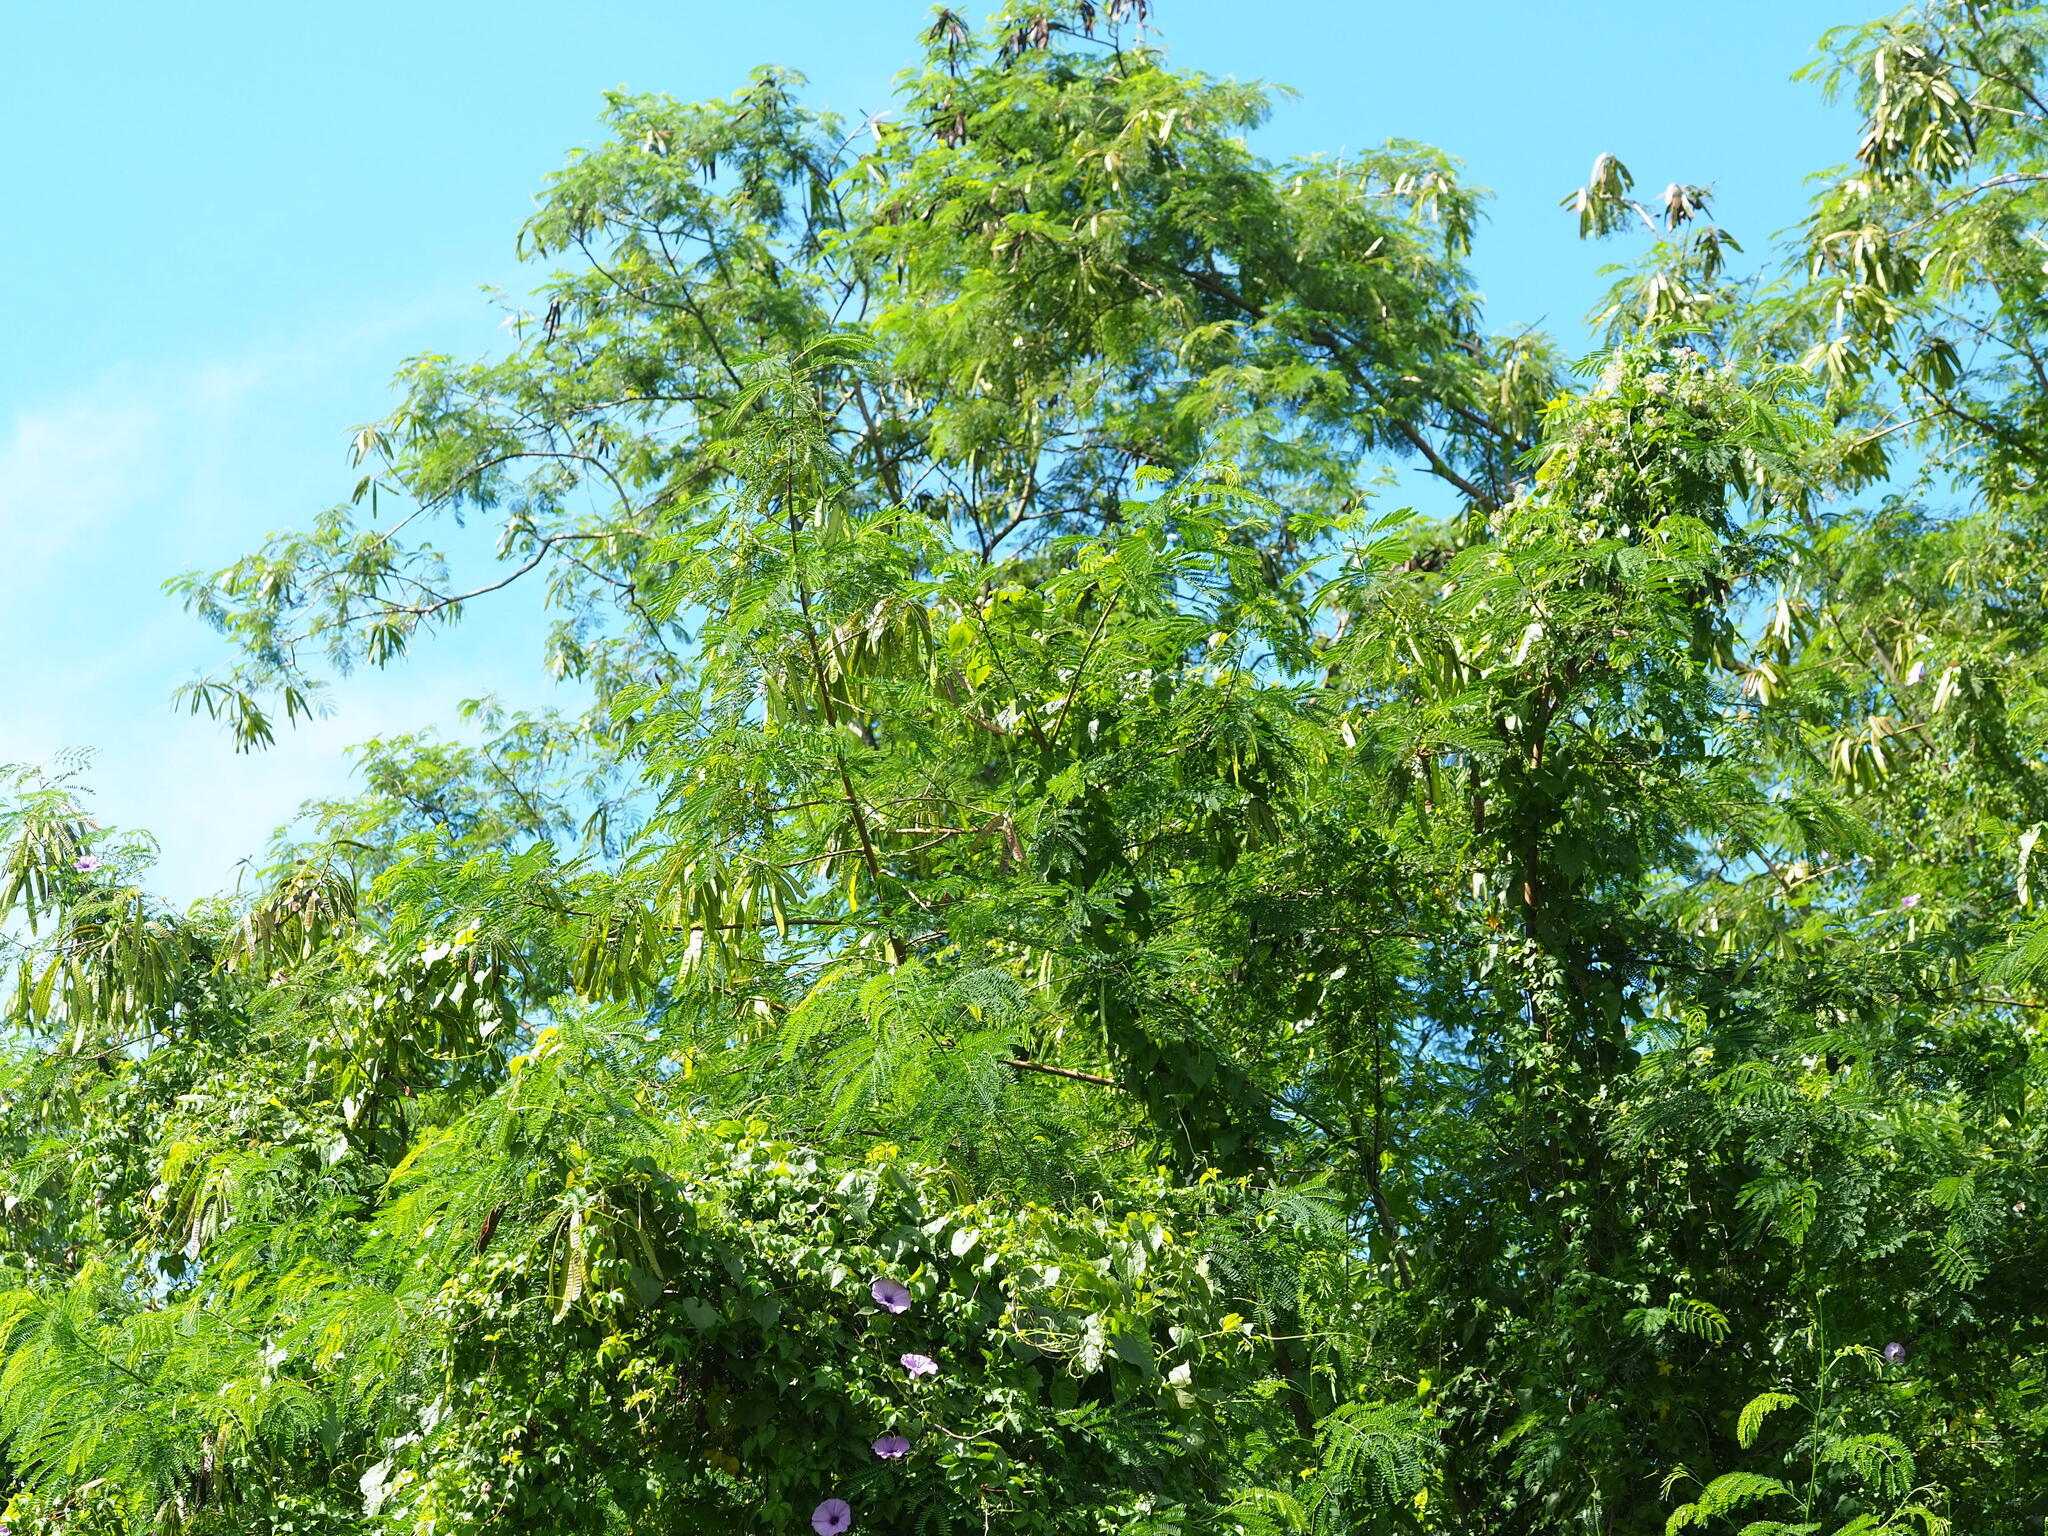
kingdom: Plantae
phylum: Tracheophyta
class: Magnoliopsida
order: Fabales
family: Fabaceae
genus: Leucaena
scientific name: Leucaena leucocephala
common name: White leadtree
